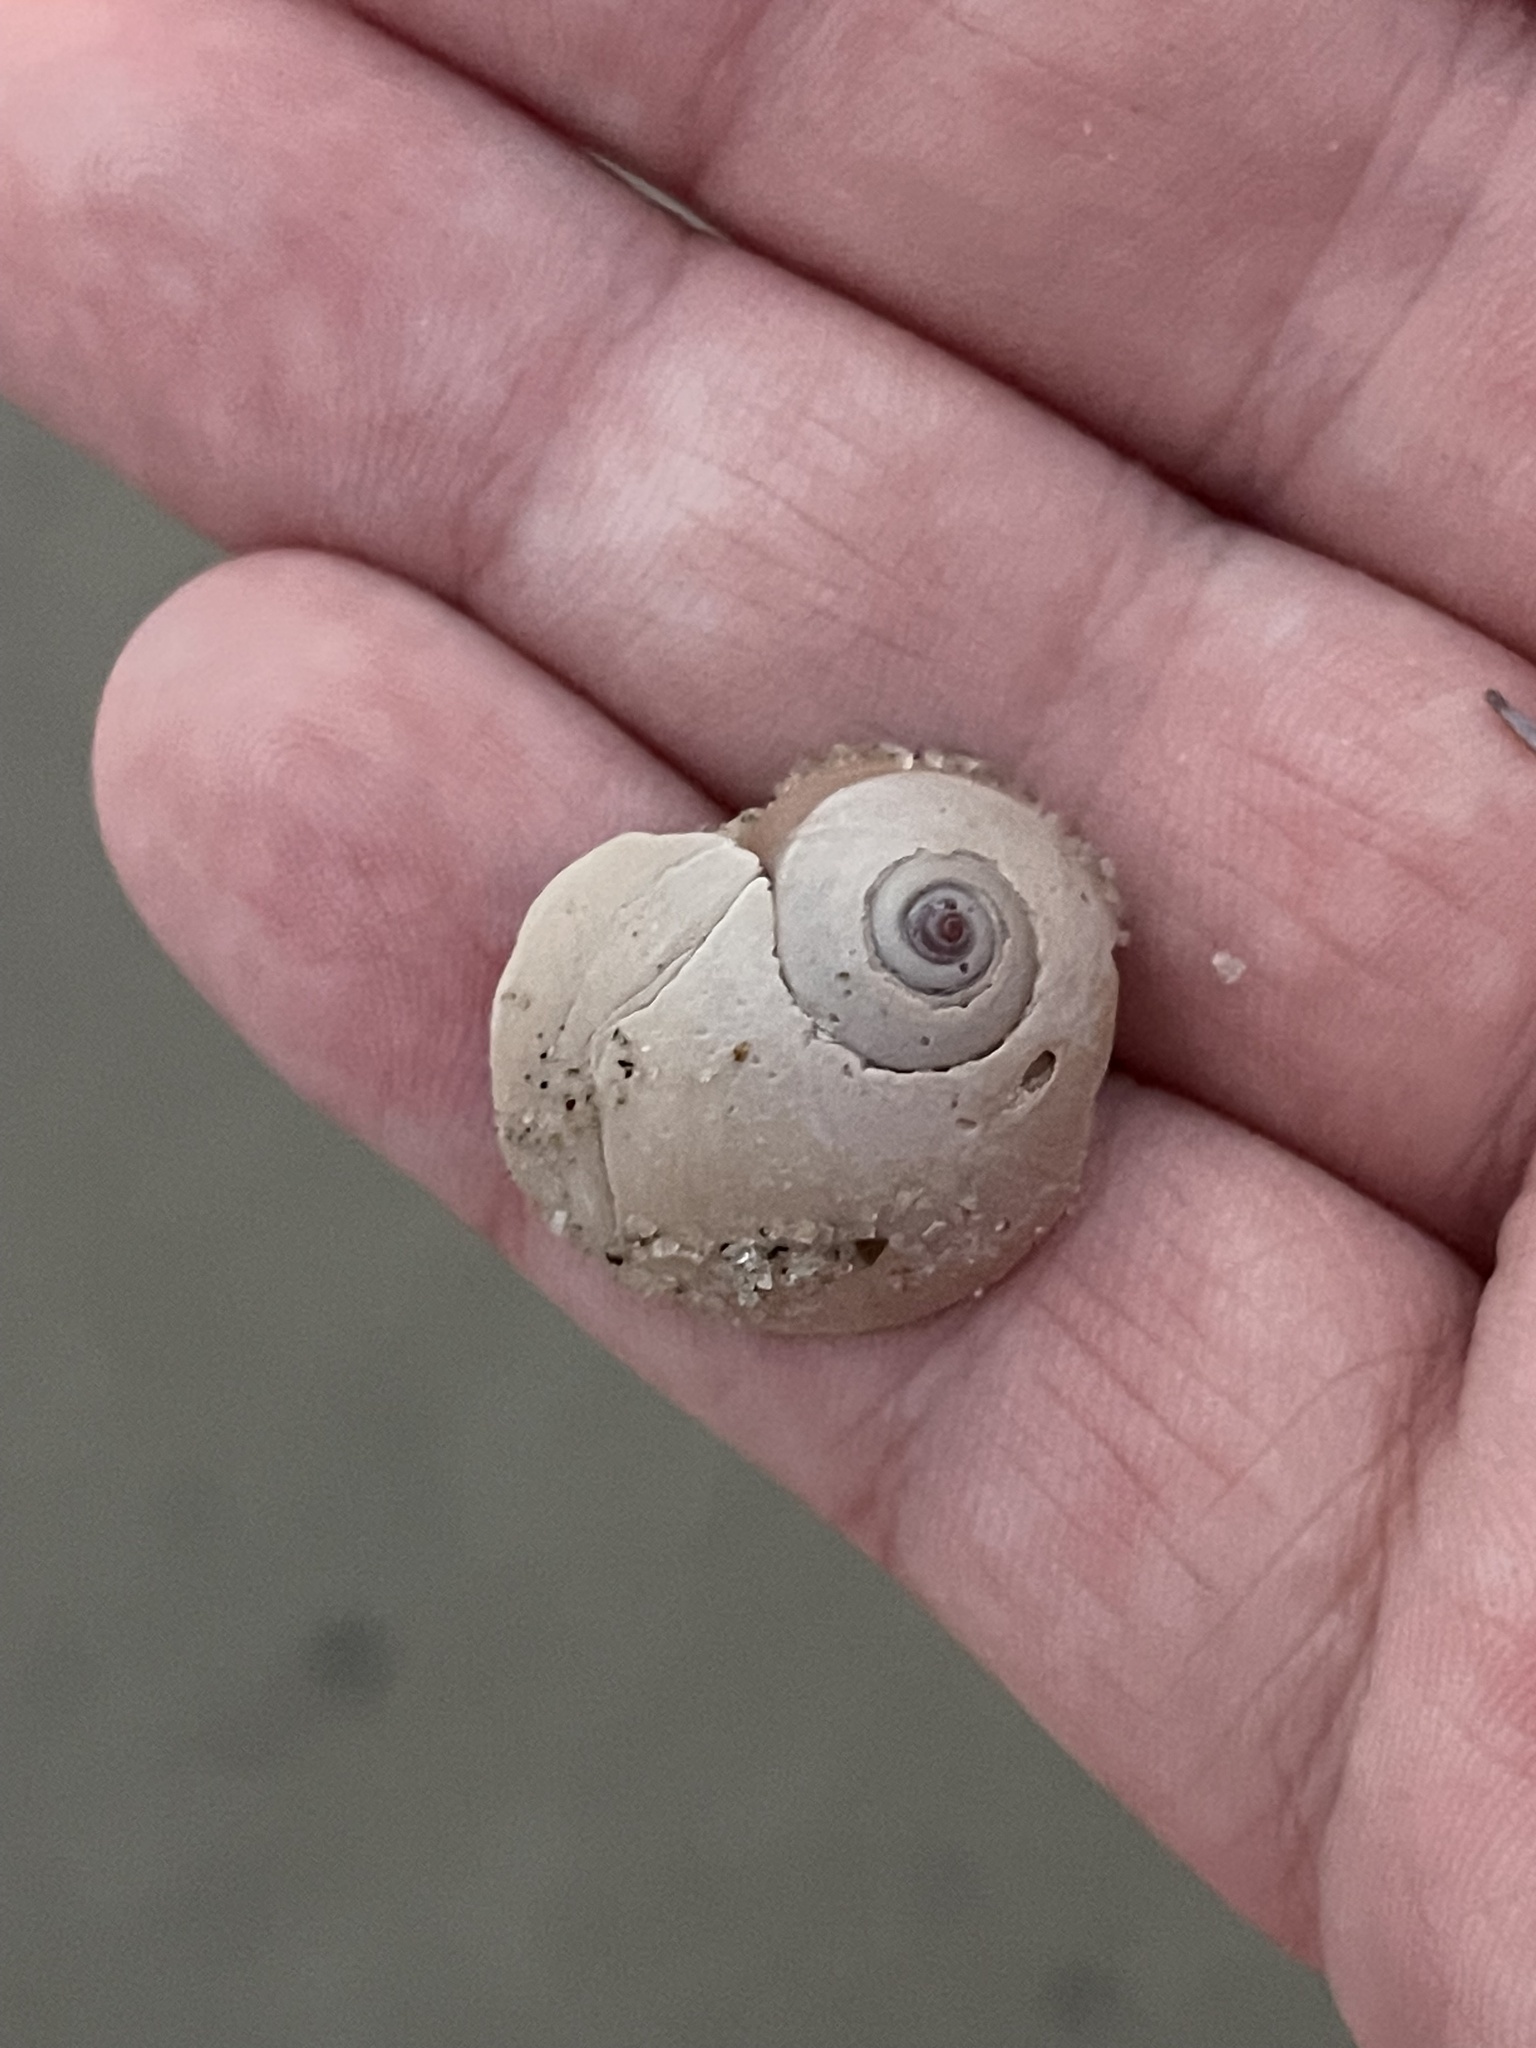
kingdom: Animalia
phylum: Mollusca
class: Gastropoda
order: Littorinimorpha
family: Naticidae
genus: Neverita
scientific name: Neverita duplicata
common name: Lobed moonsnail
